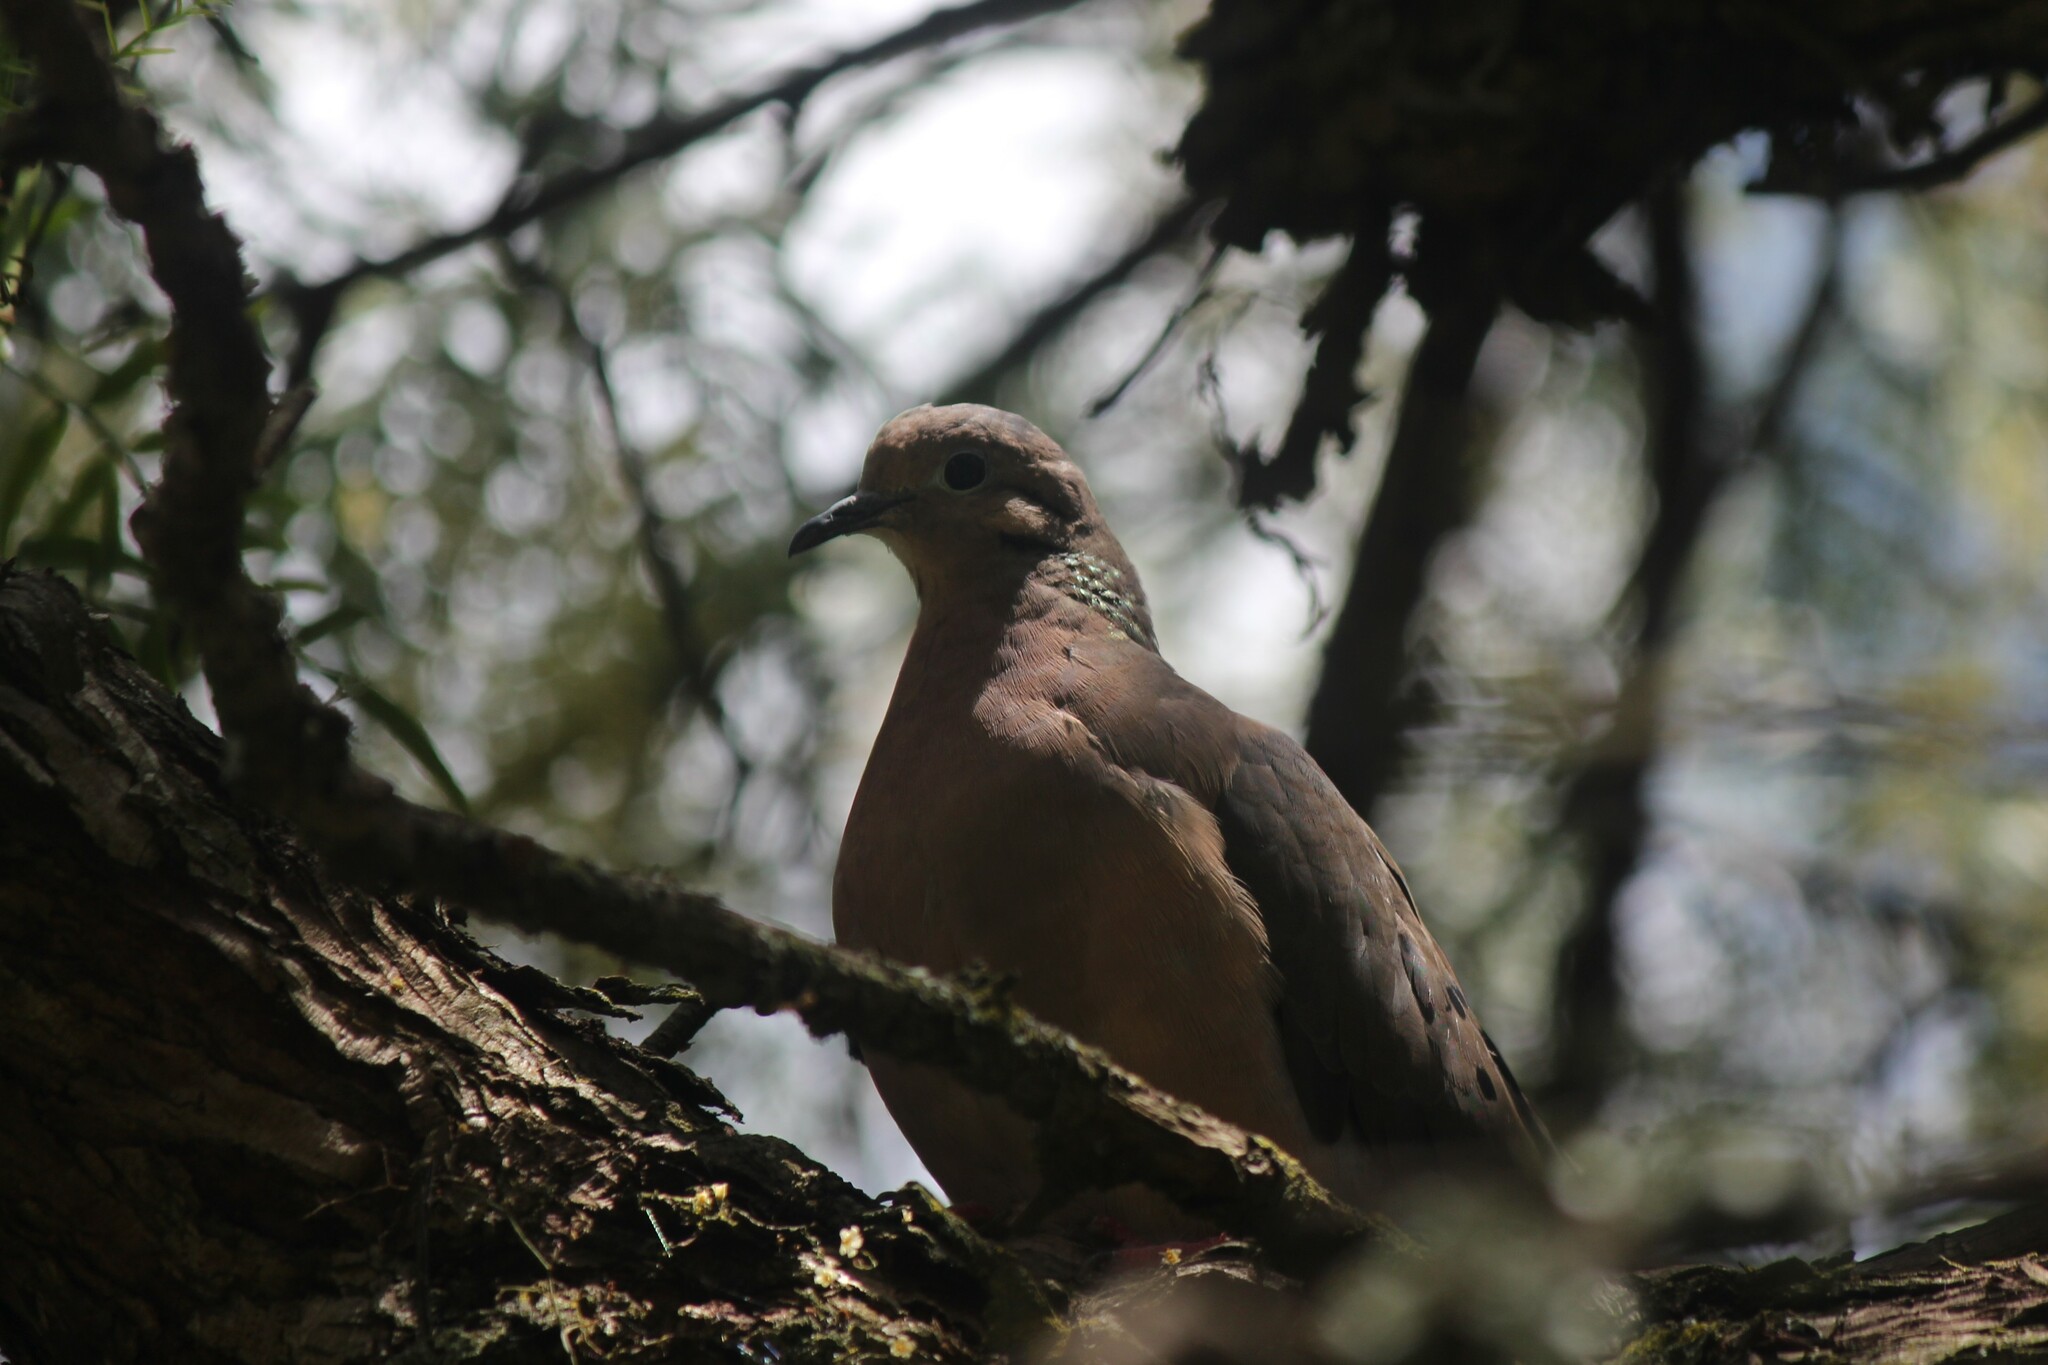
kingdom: Animalia
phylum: Chordata
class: Aves
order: Columbiformes
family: Columbidae
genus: Zenaida
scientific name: Zenaida auriculata
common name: Eared dove
